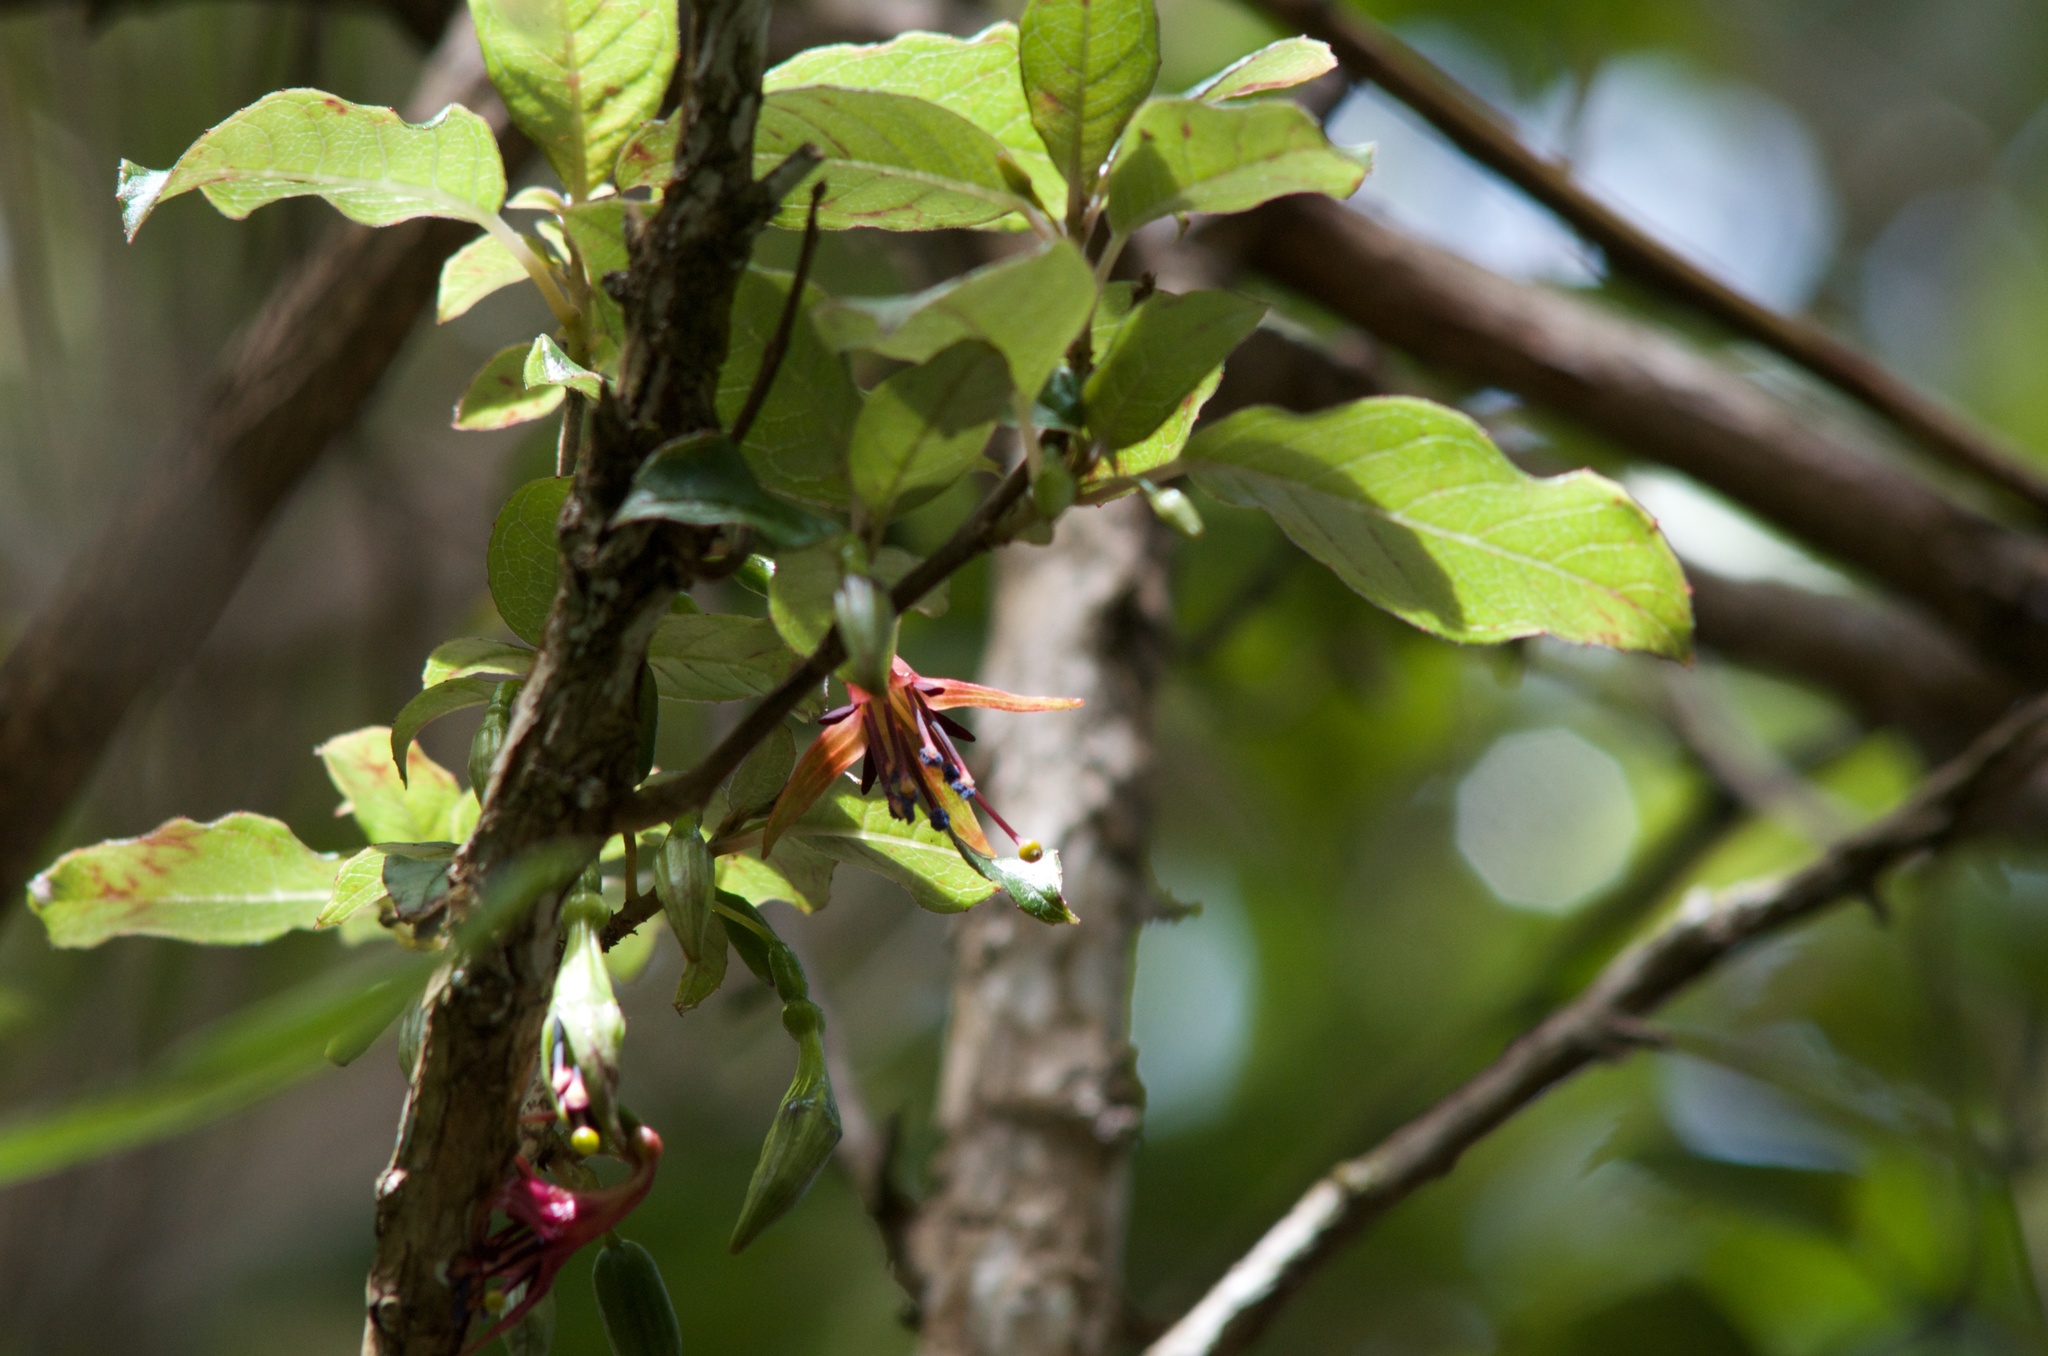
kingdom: Plantae
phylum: Tracheophyta
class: Magnoliopsida
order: Myrtales
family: Onagraceae
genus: Fuchsia
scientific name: Fuchsia excorticata
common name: Tree fuchsia
